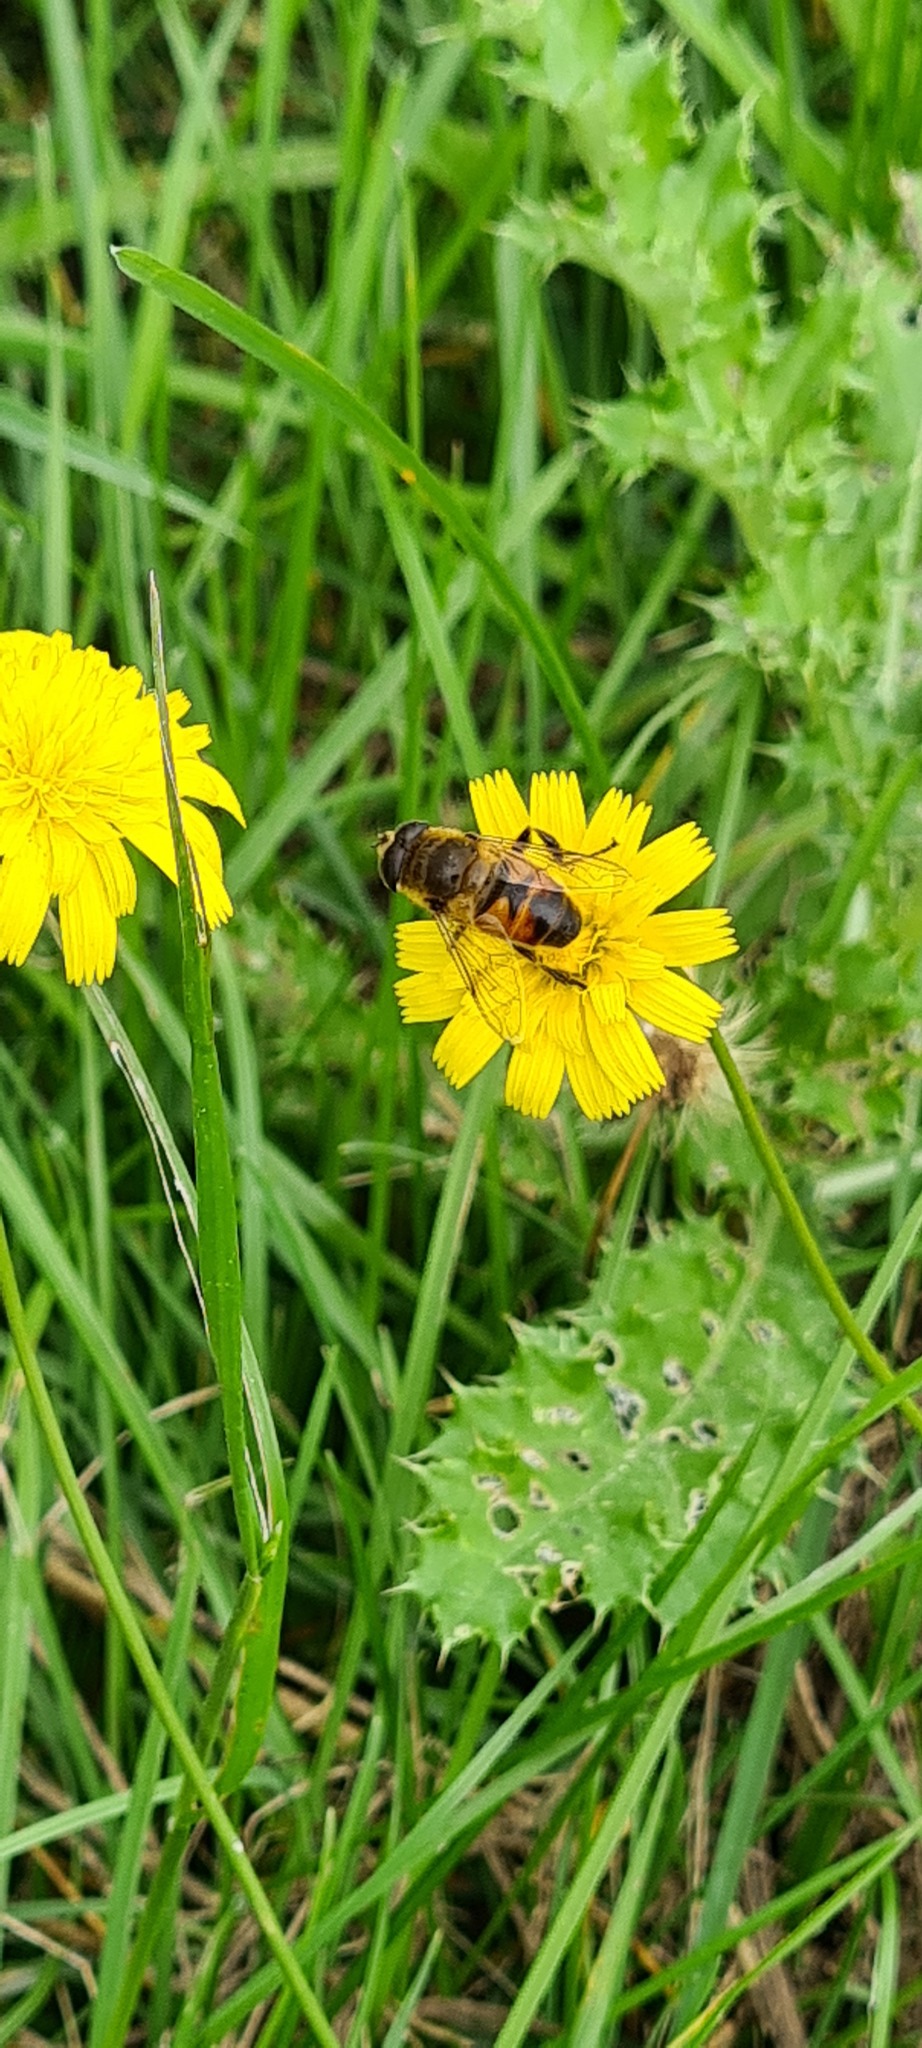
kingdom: Animalia
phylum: Arthropoda
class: Insecta
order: Diptera
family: Syrphidae
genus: Eristalis
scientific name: Eristalis tenax
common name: Drone fly
